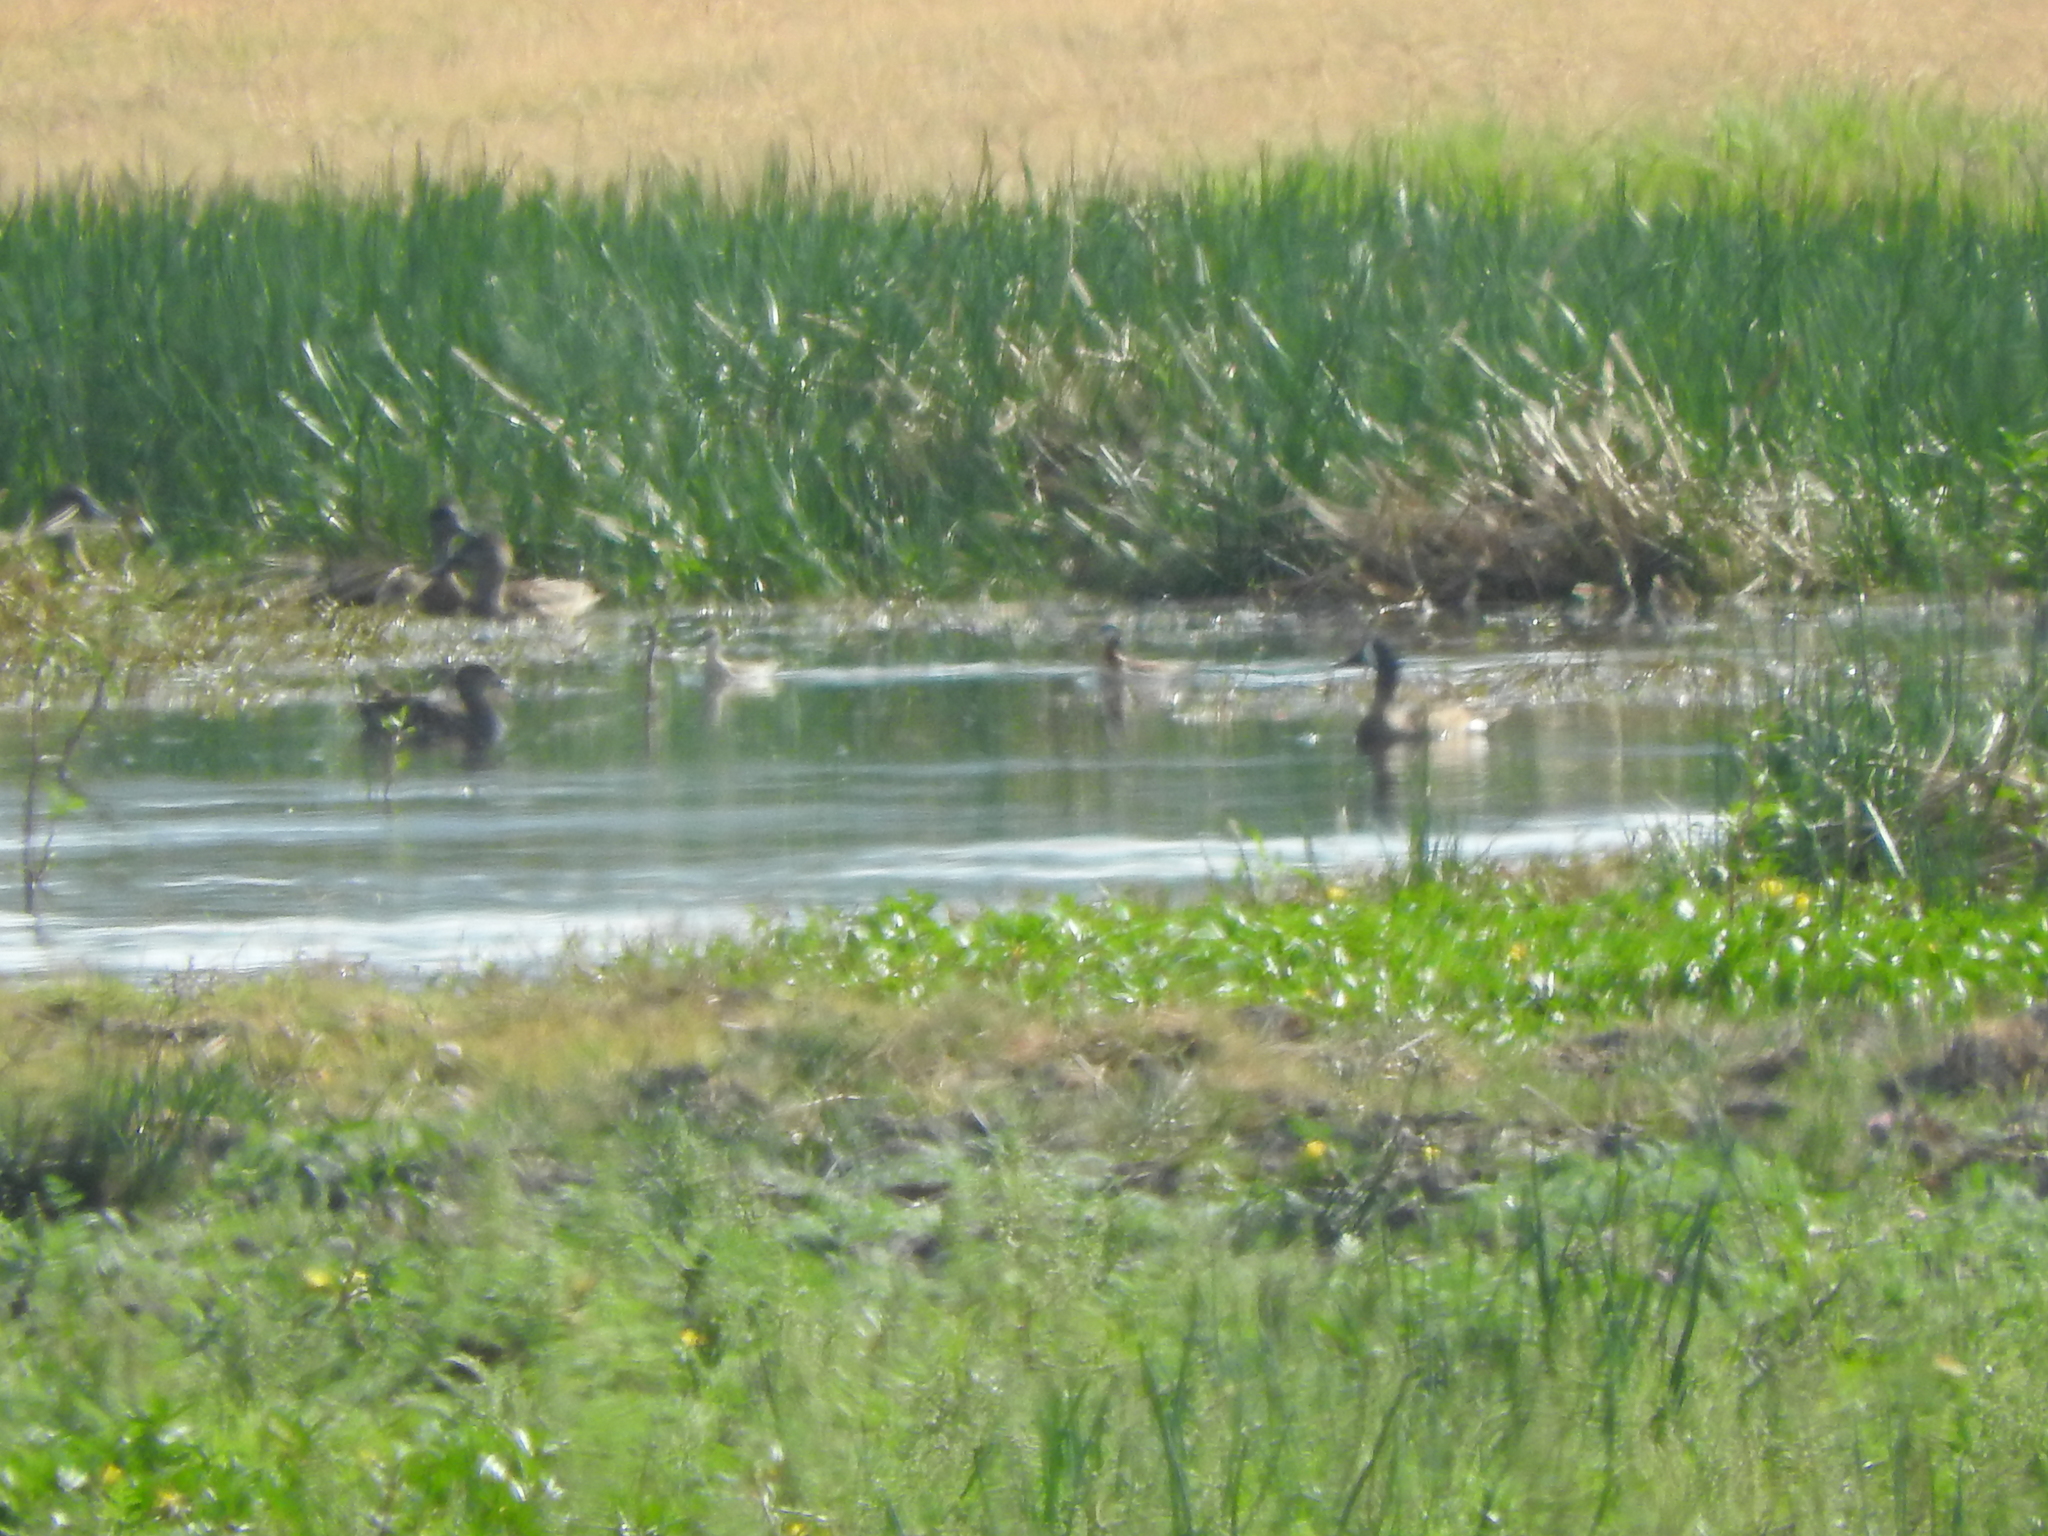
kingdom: Animalia
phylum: Chordata
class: Aves
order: Anseriformes
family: Anatidae
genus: Spatula
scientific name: Spatula discors
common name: Blue-winged teal
